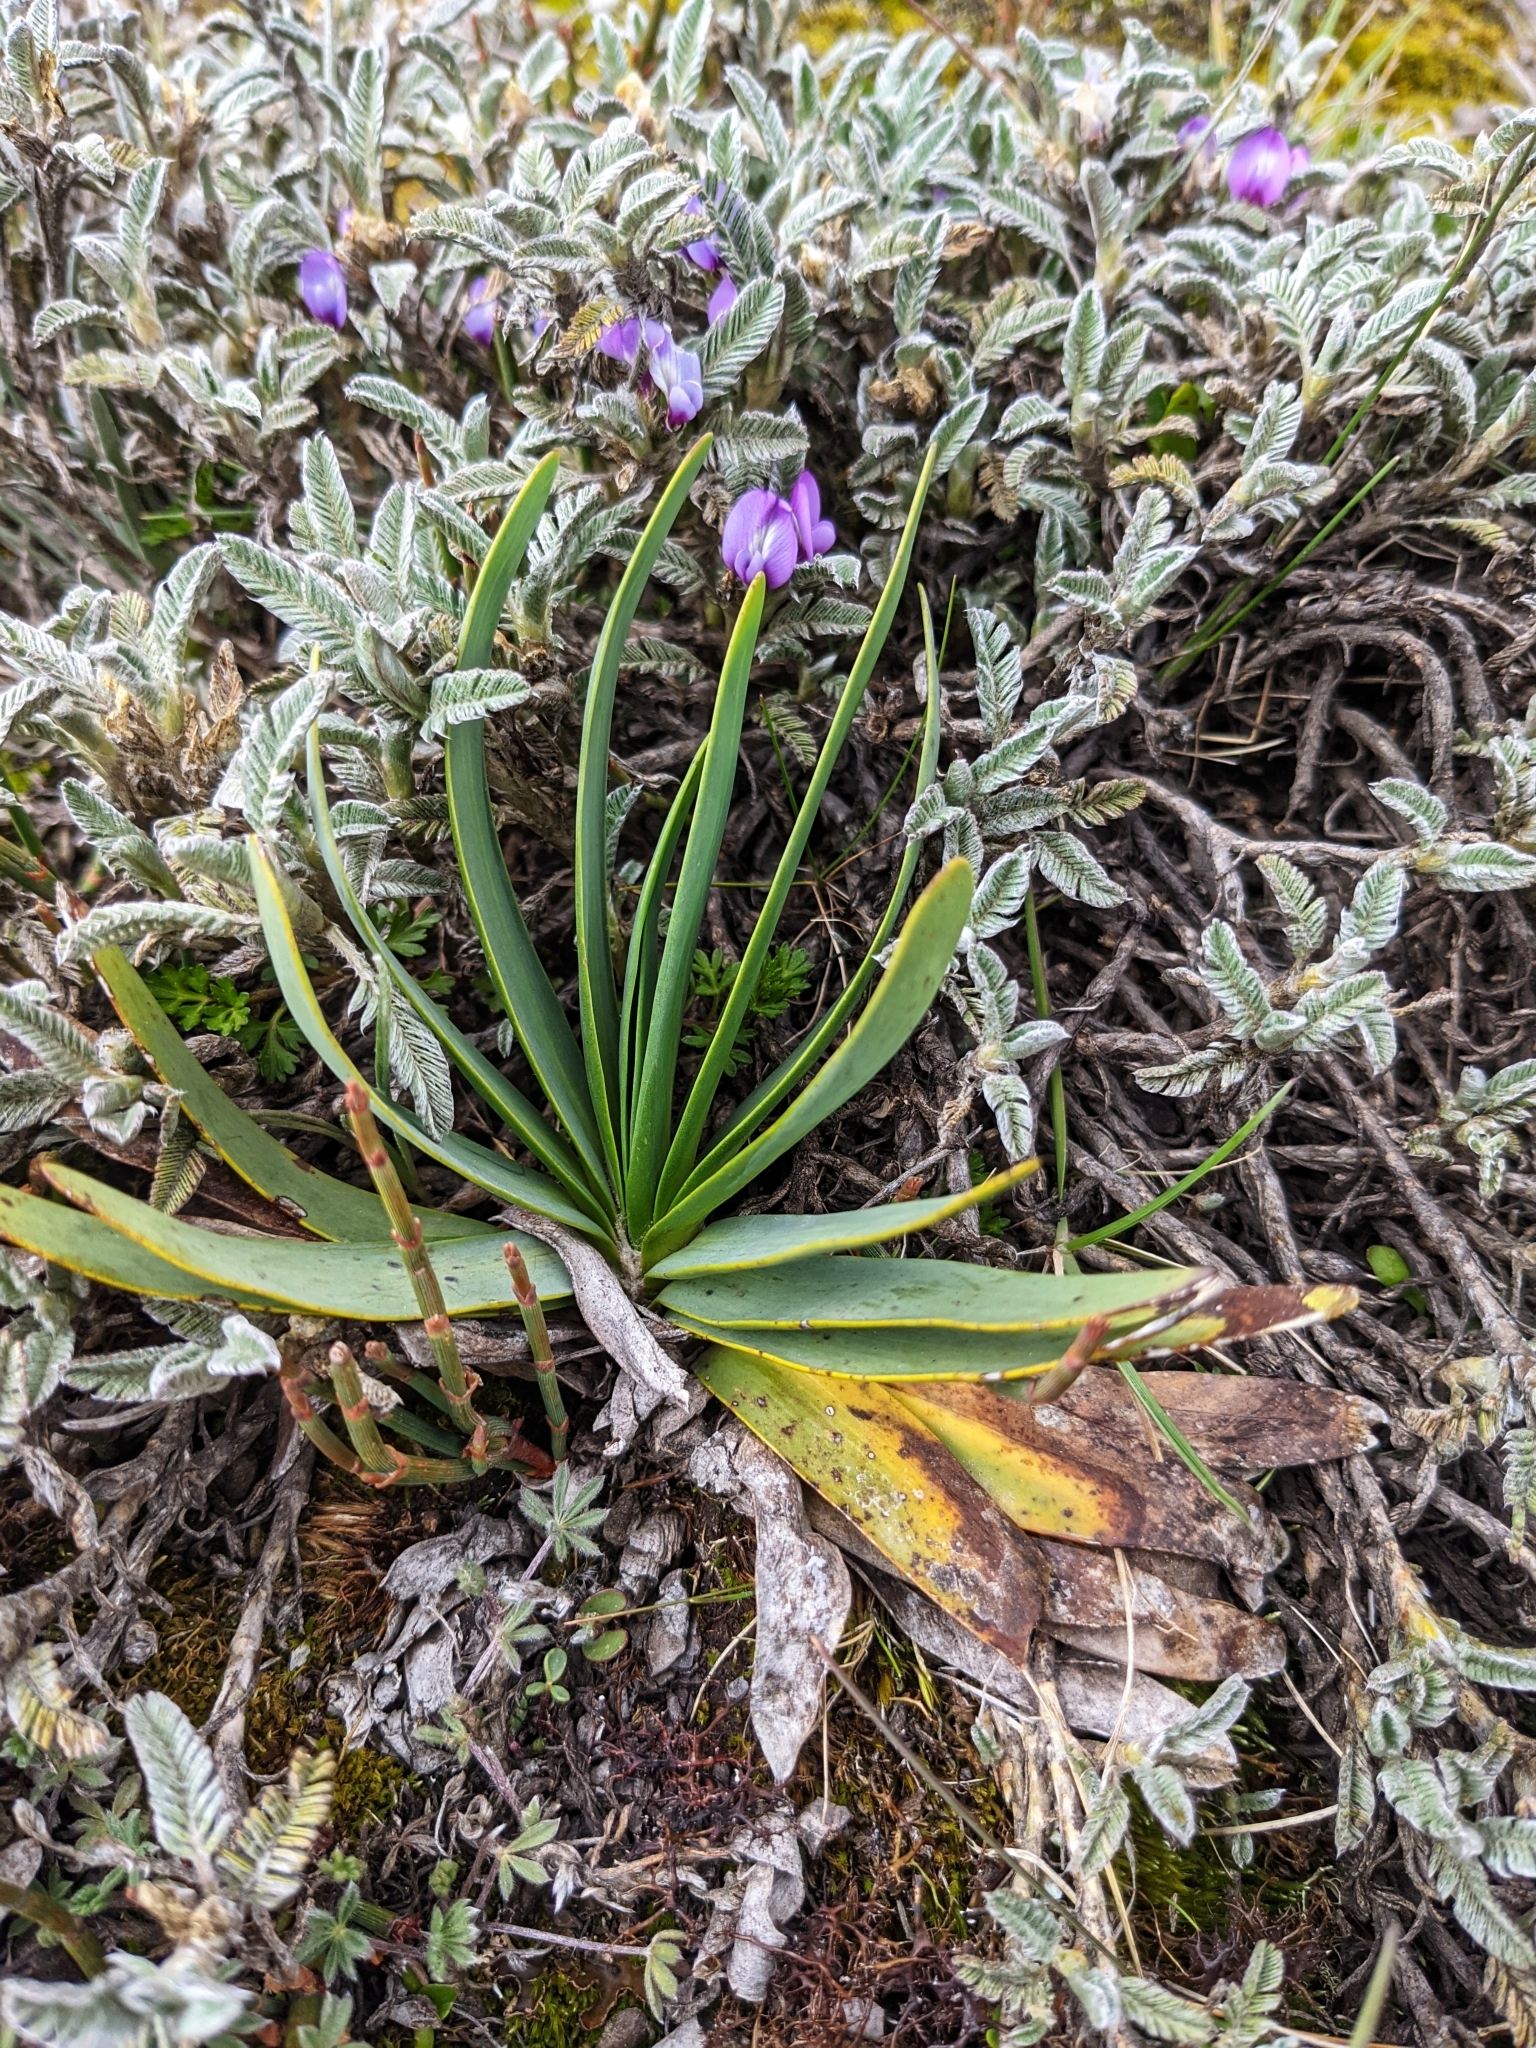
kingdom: Plantae
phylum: Tracheophyta
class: Magnoliopsida
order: Asterales
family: Asteraceae
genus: Rockhausenia
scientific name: Rockhausenia nubigena
